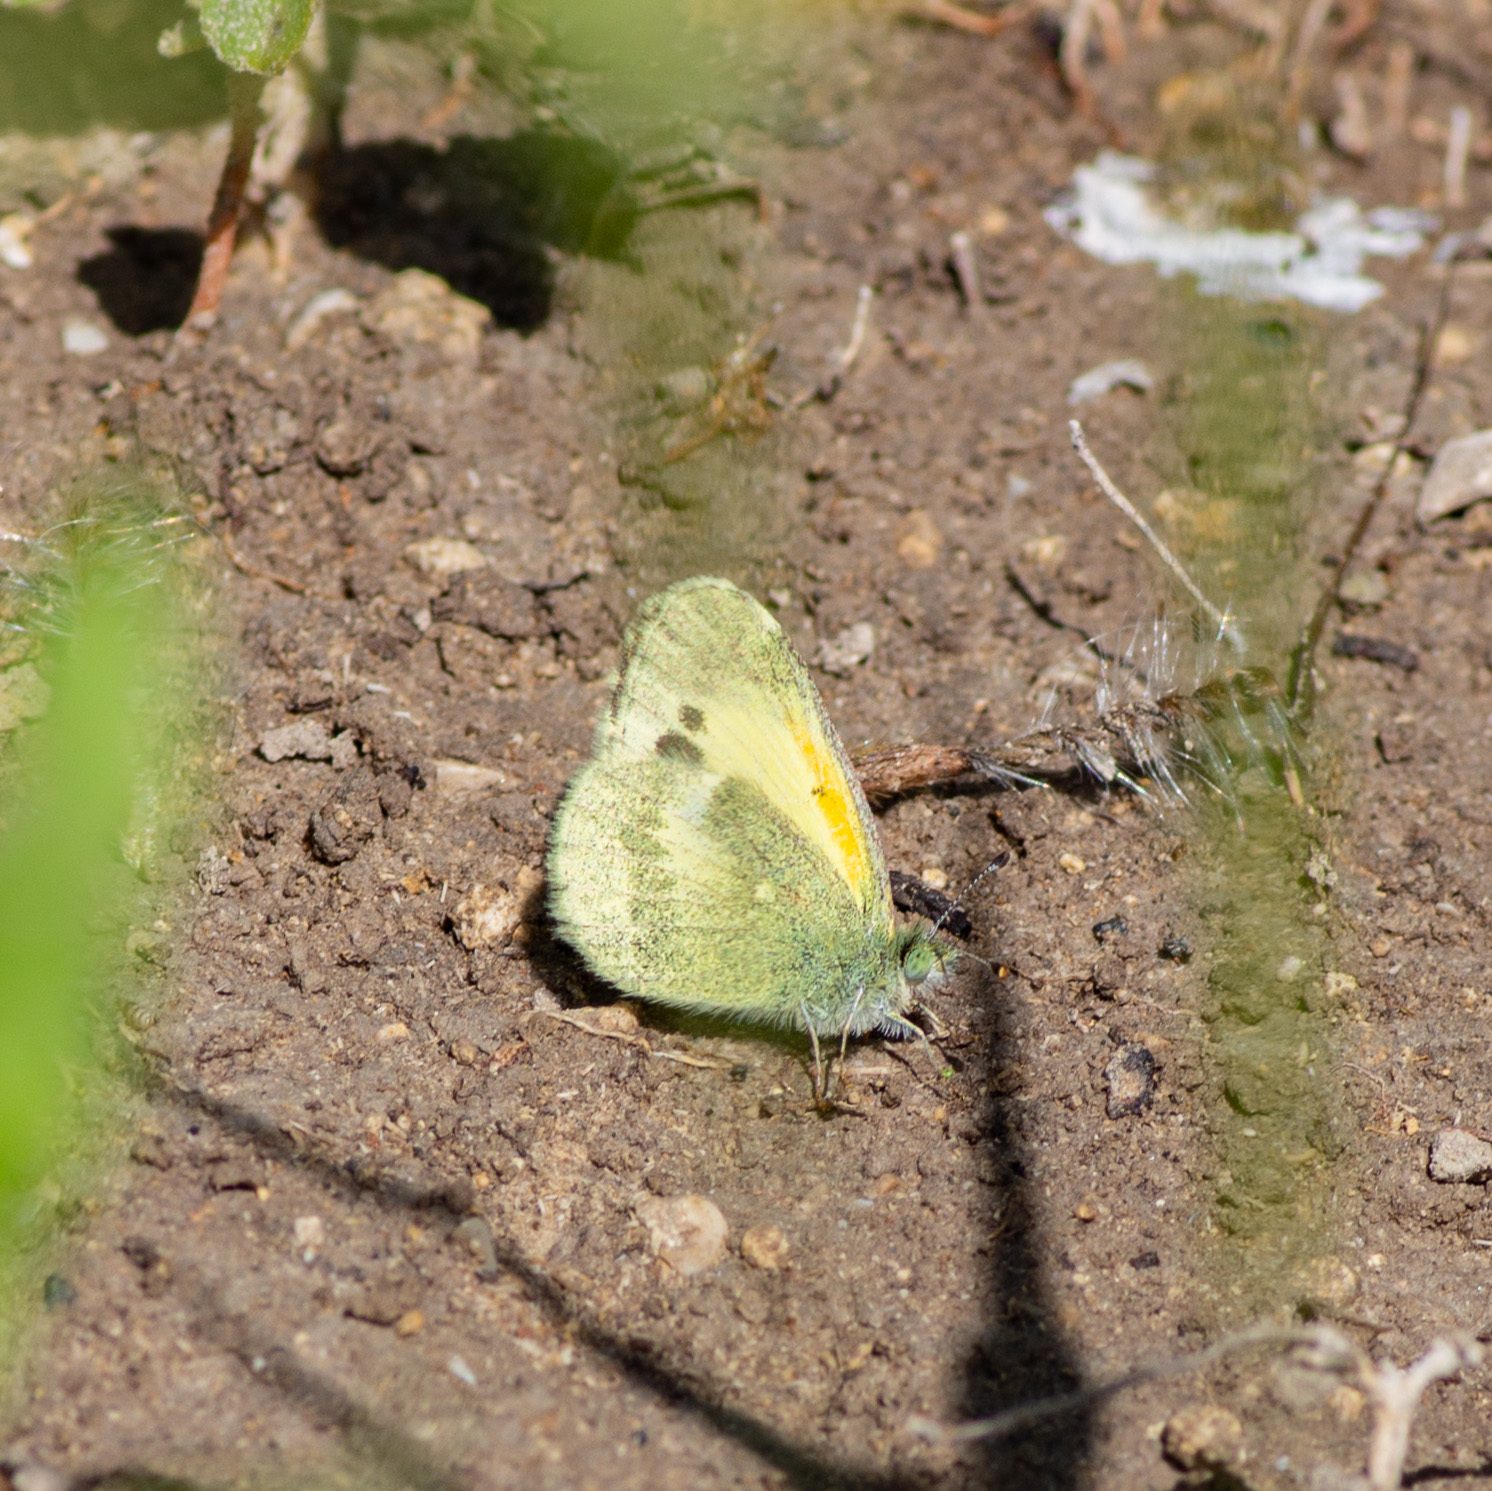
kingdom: Animalia
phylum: Arthropoda
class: Insecta
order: Lepidoptera
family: Pieridae
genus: Nathalis
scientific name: Nathalis iole
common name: Dainty sulphur
